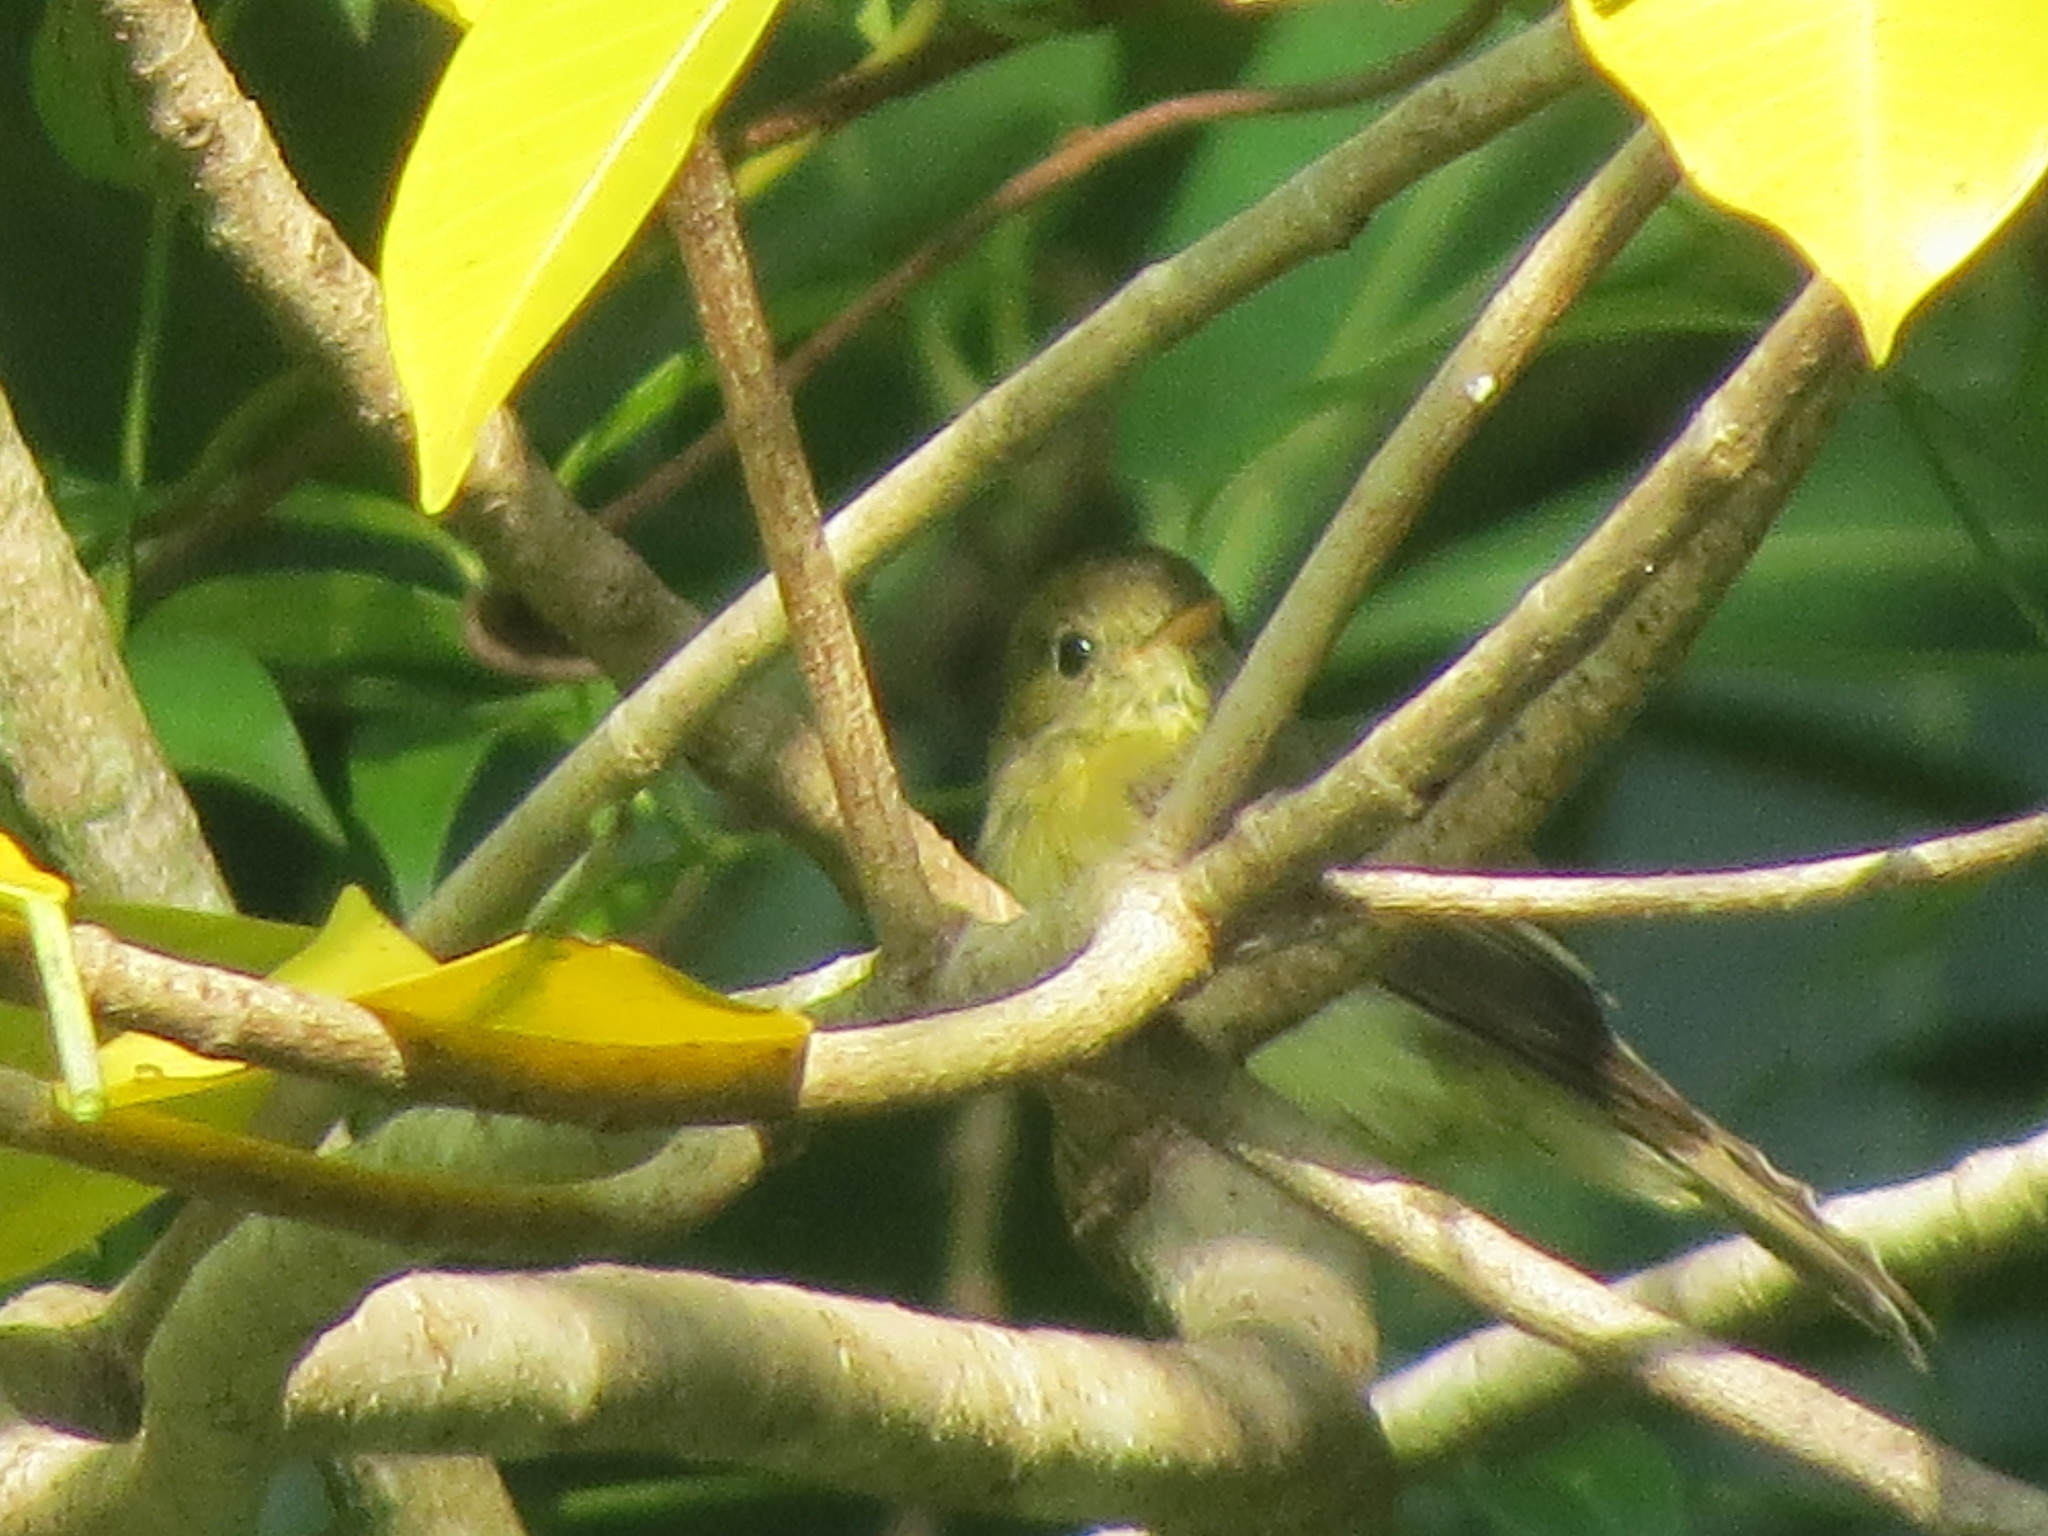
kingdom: Animalia
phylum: Chordata
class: Aves
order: Passeriformes
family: Tyrannidae
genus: Empidonax
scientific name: Empidonax flaviventris
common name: Yellow-bellied flycatcher
